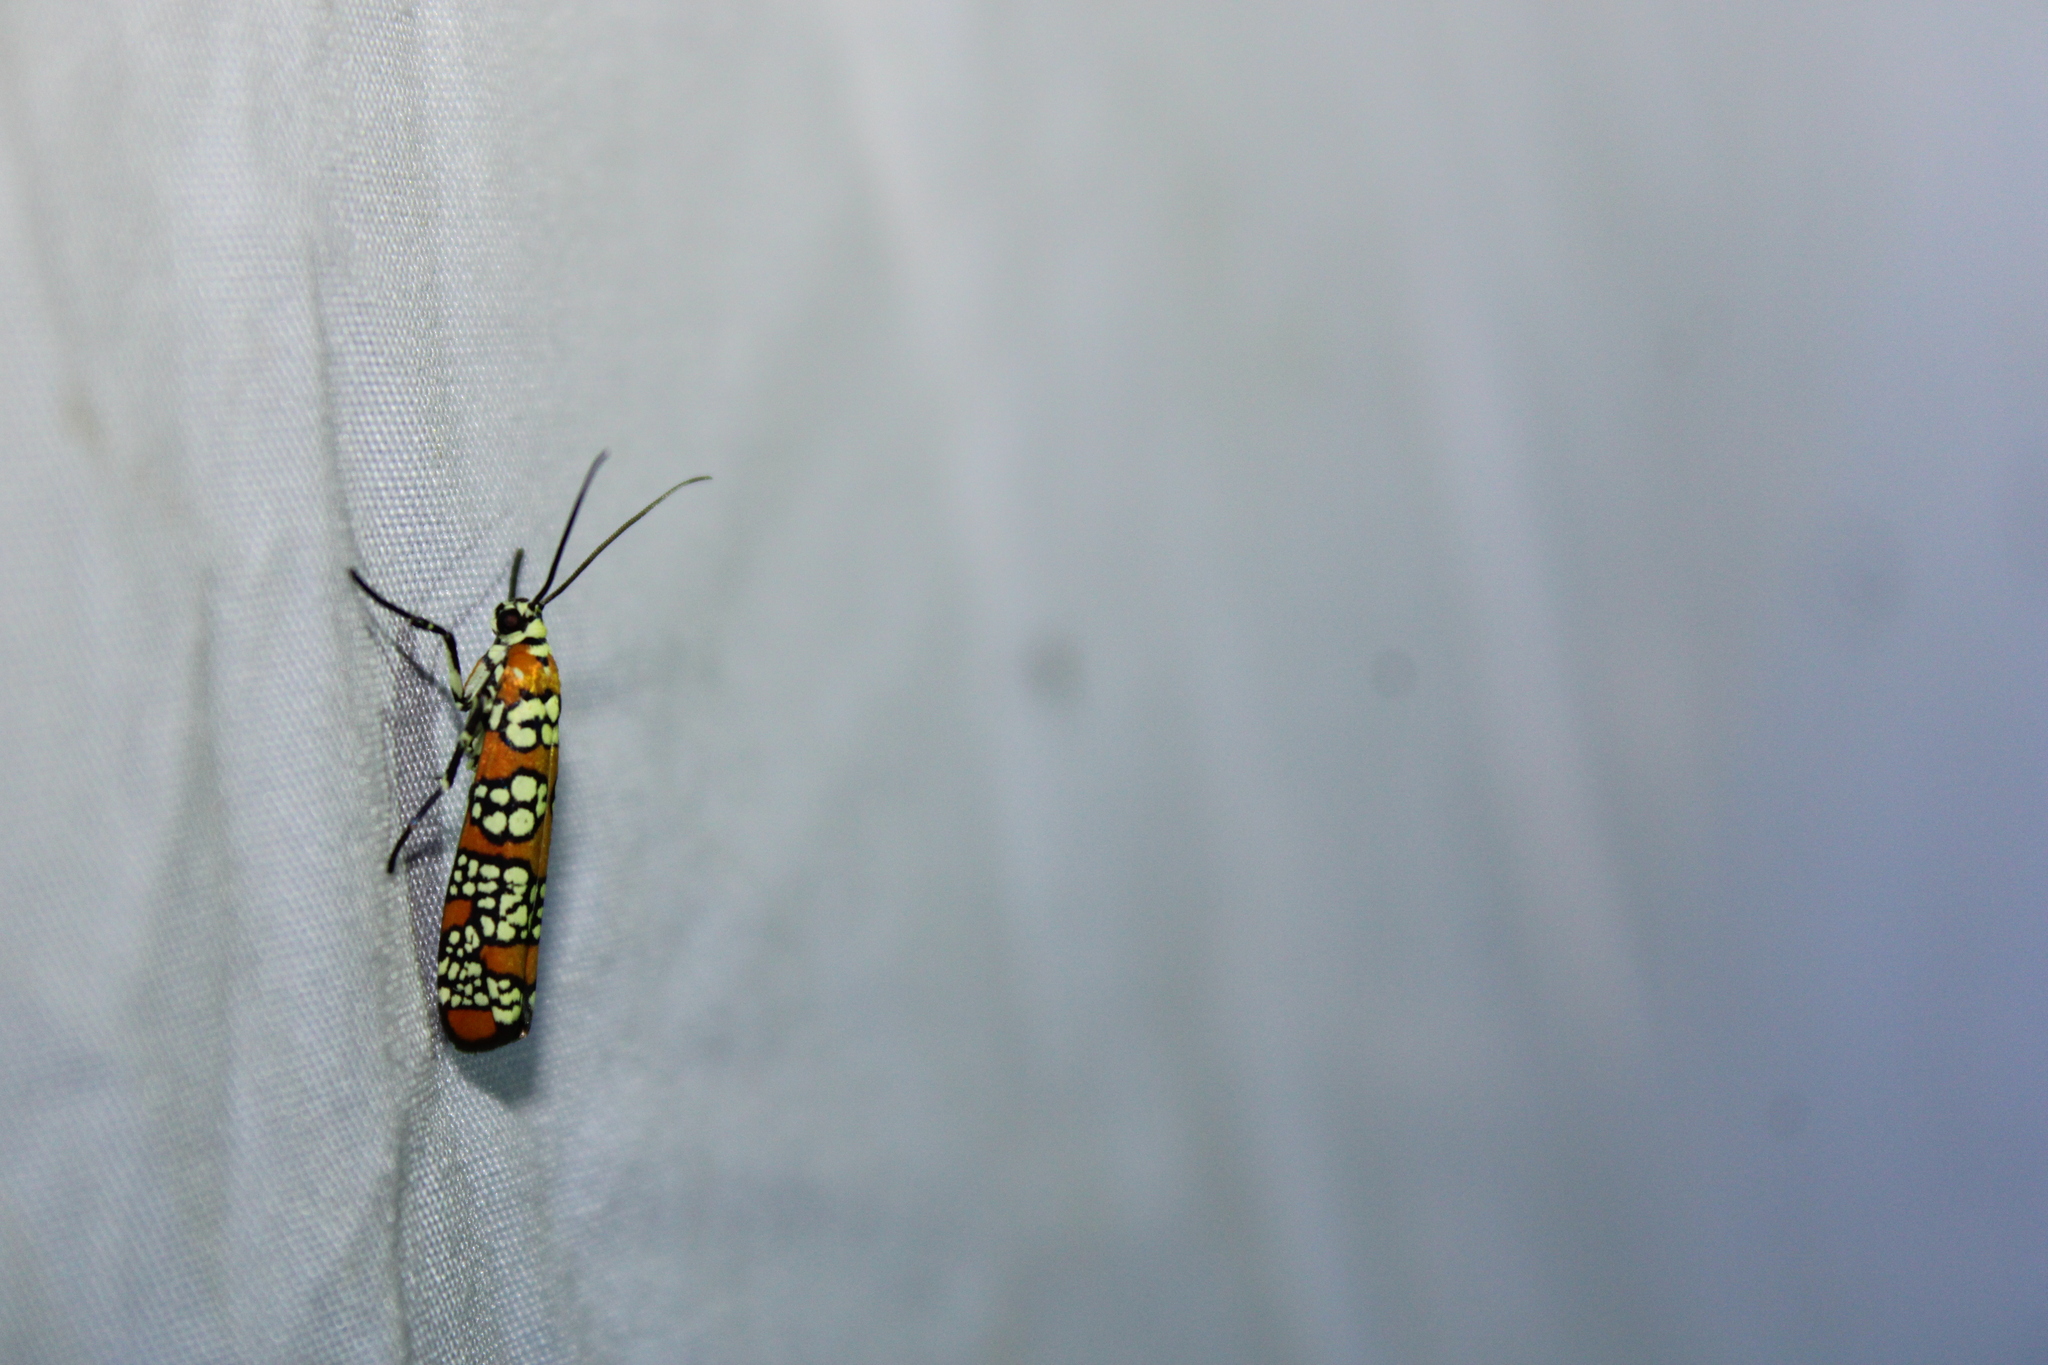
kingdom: Animalia
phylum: Arthropoda
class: Insecta
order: Lepidoptera
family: Attevidae
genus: Atteva
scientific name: Atteva punctella
